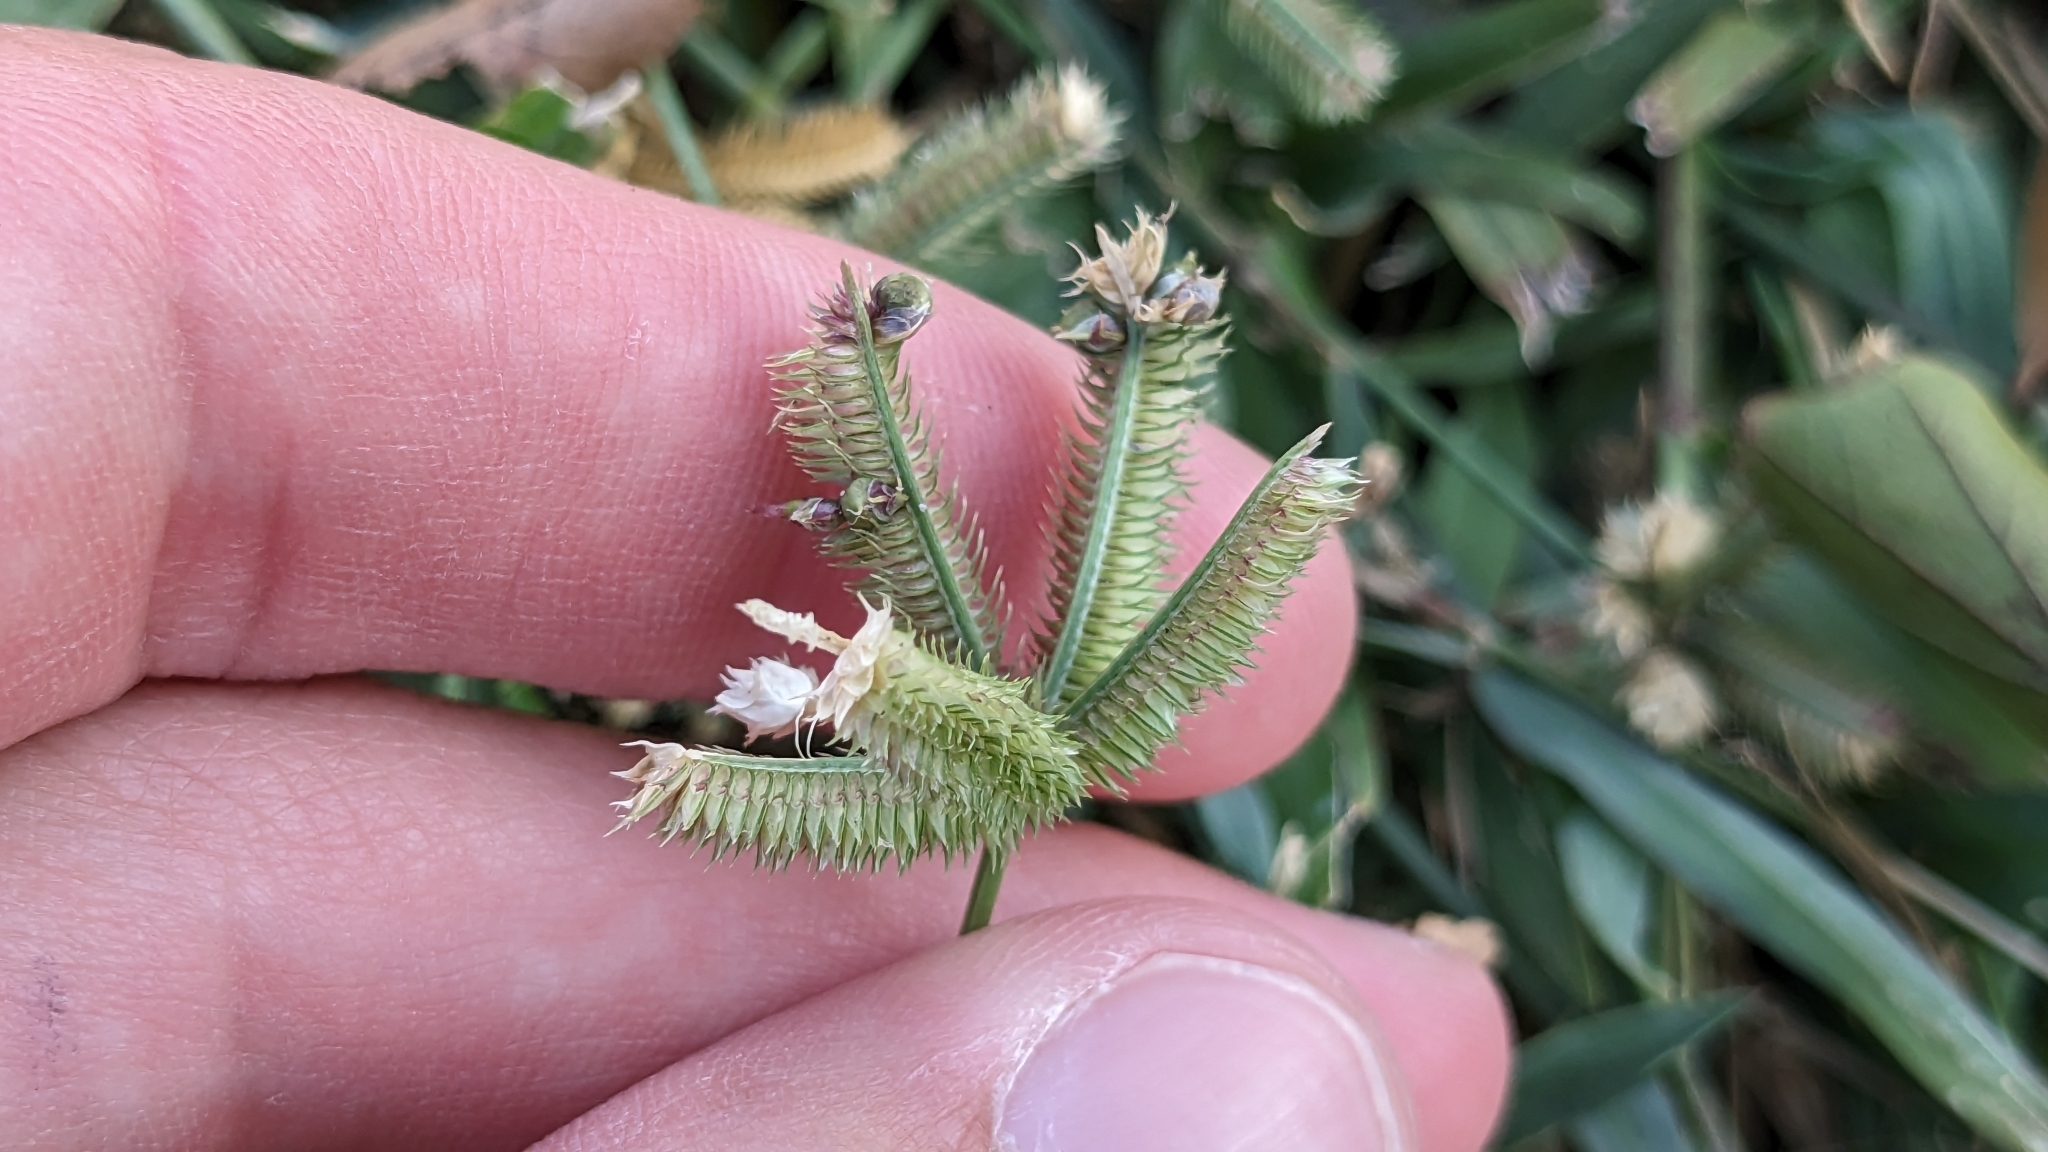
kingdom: Plantae
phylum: Tracheophyta
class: Liliopsida
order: Poales
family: Poaceae
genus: Dactyloctenium
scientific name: Dactyloctenium aegyptium
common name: Egyptian grass
